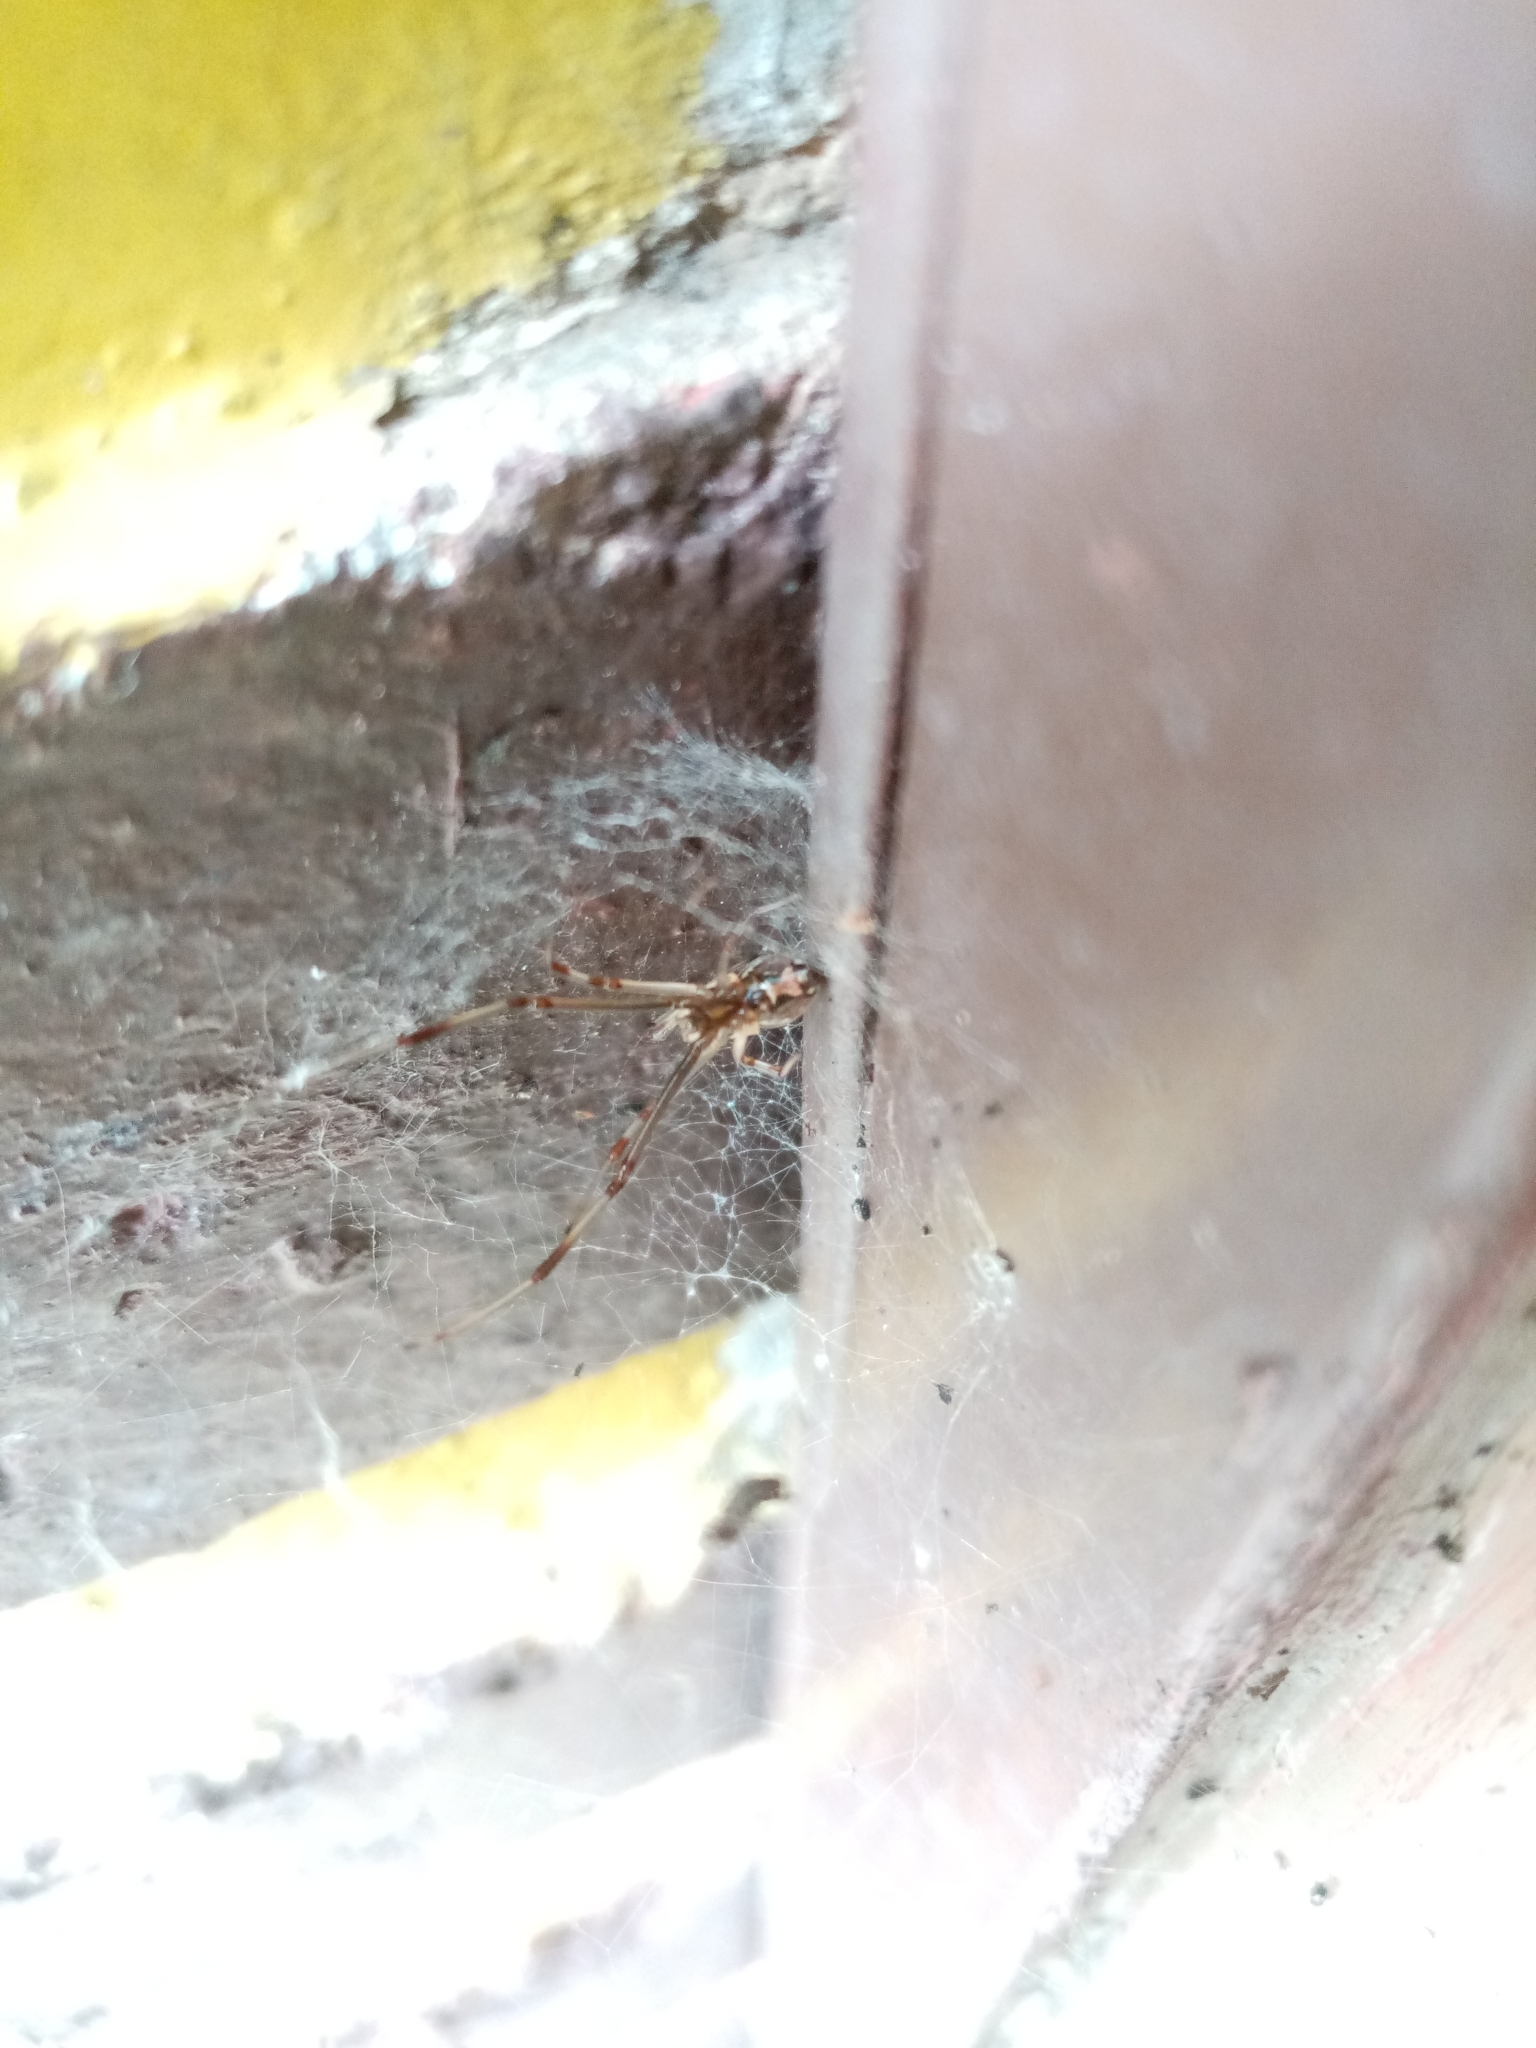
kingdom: Animalia
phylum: Arthropoda
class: Arachnida
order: Araneae
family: Theridiidae
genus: Latrodectus
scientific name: Latrodectus geometricus
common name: Brown widow spider
